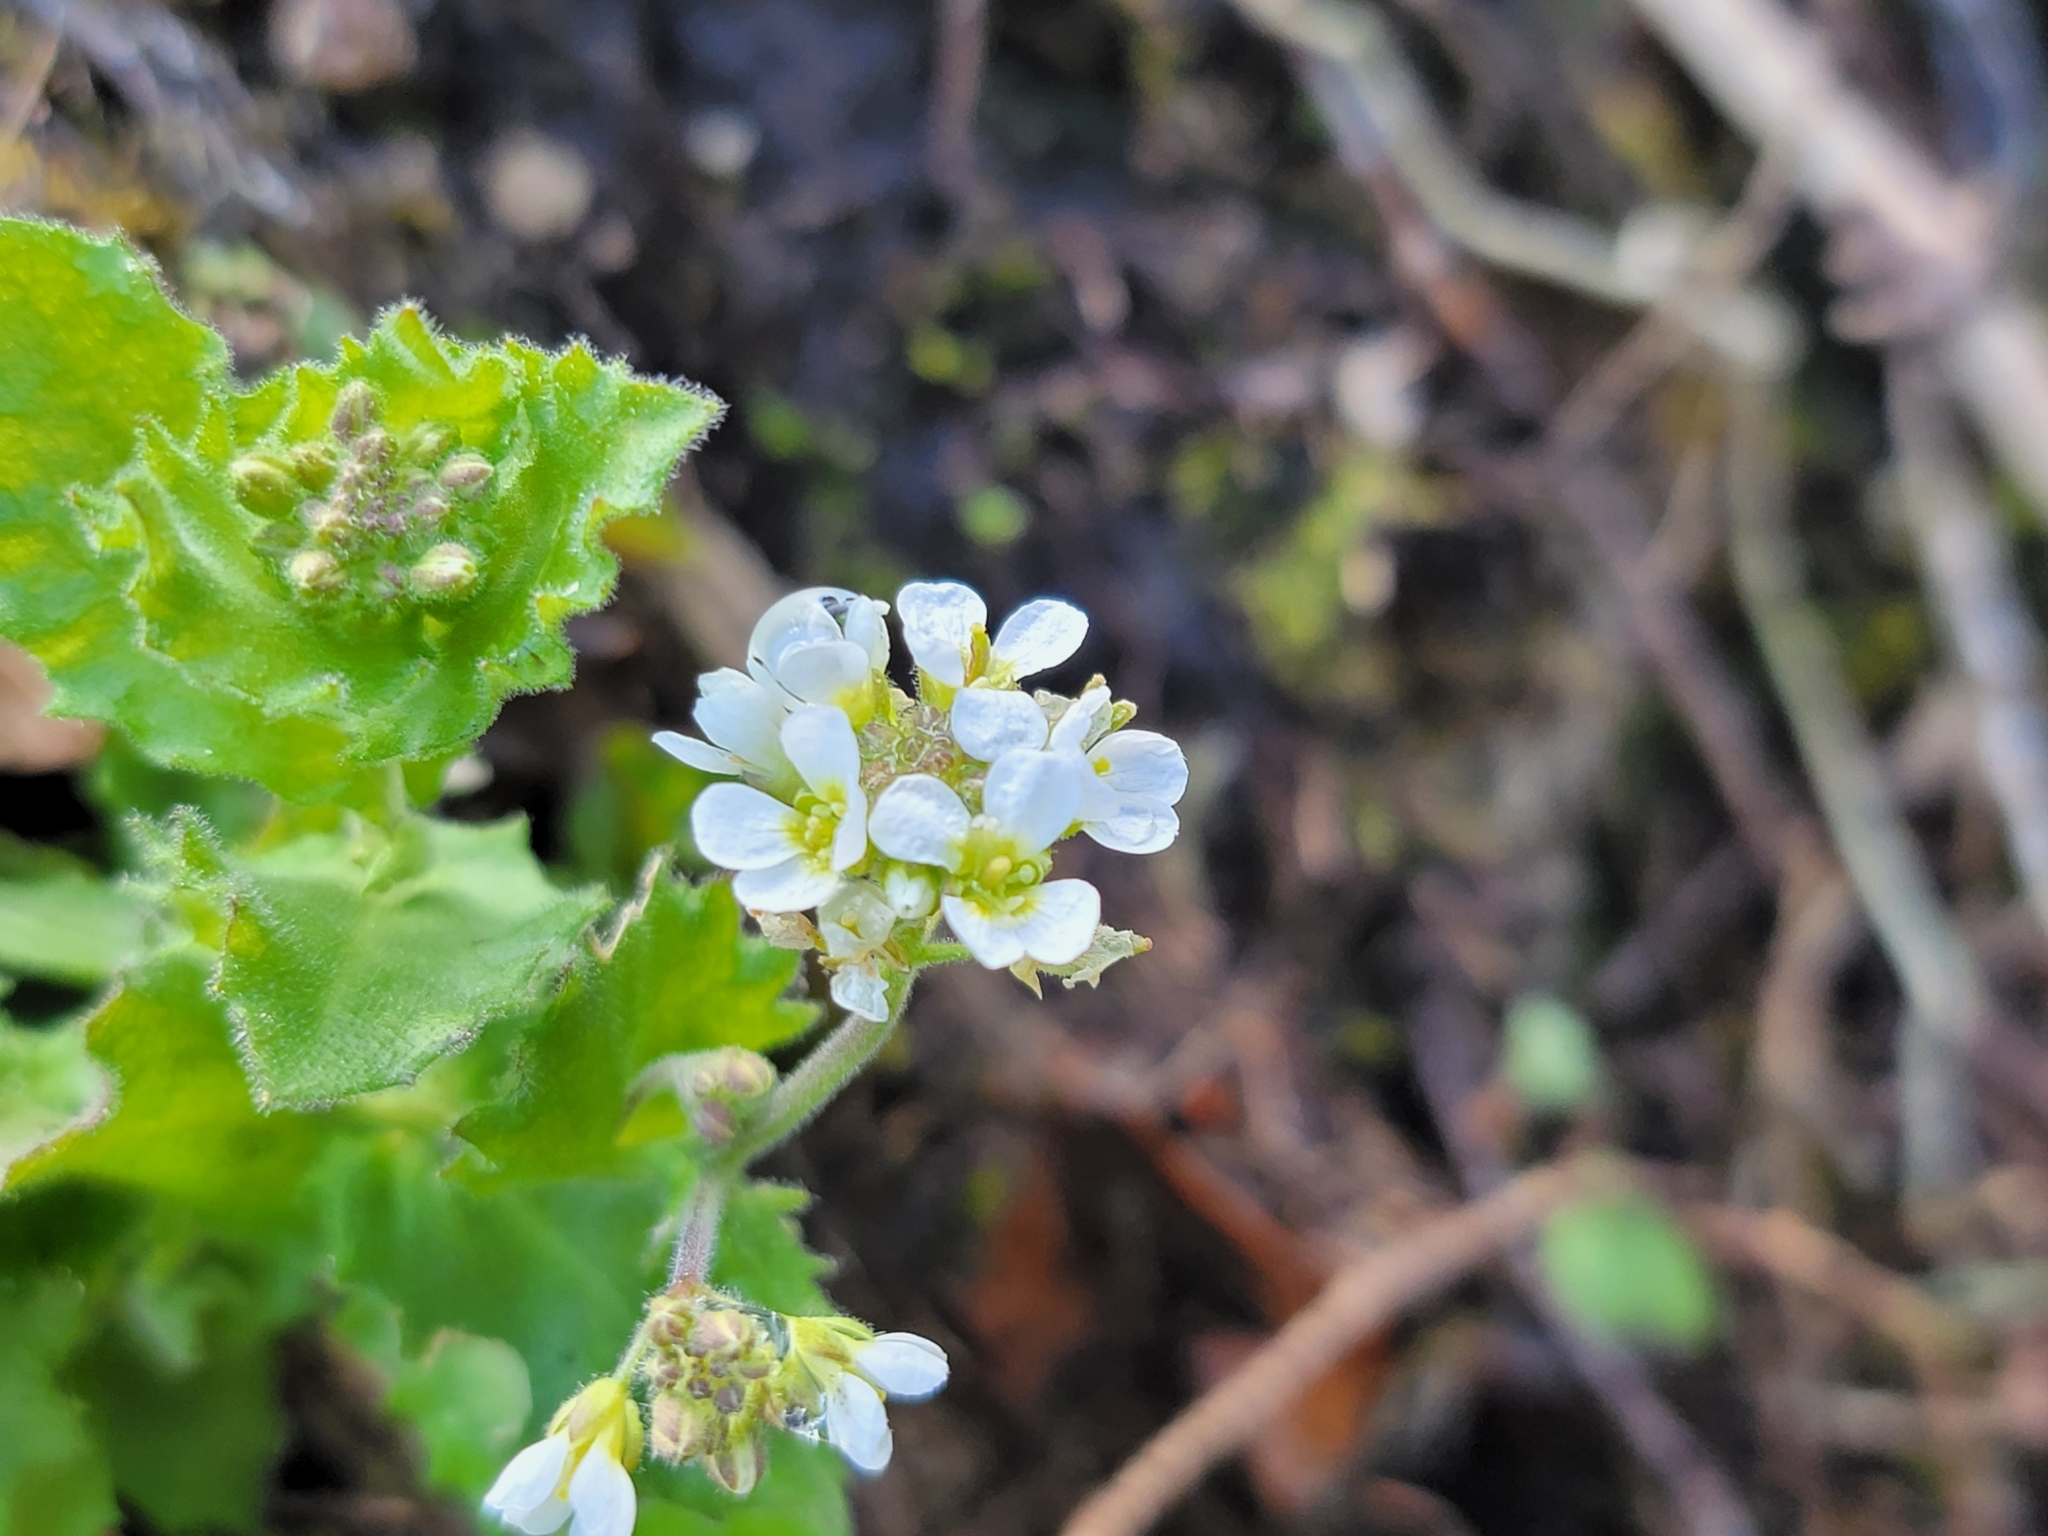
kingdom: Plantae
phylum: Tracheophyta
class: Magnoliopsida
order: Brassicales
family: Brassicaceae
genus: Arabis
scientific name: Arabis alpina
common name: Alpine rock-cress
